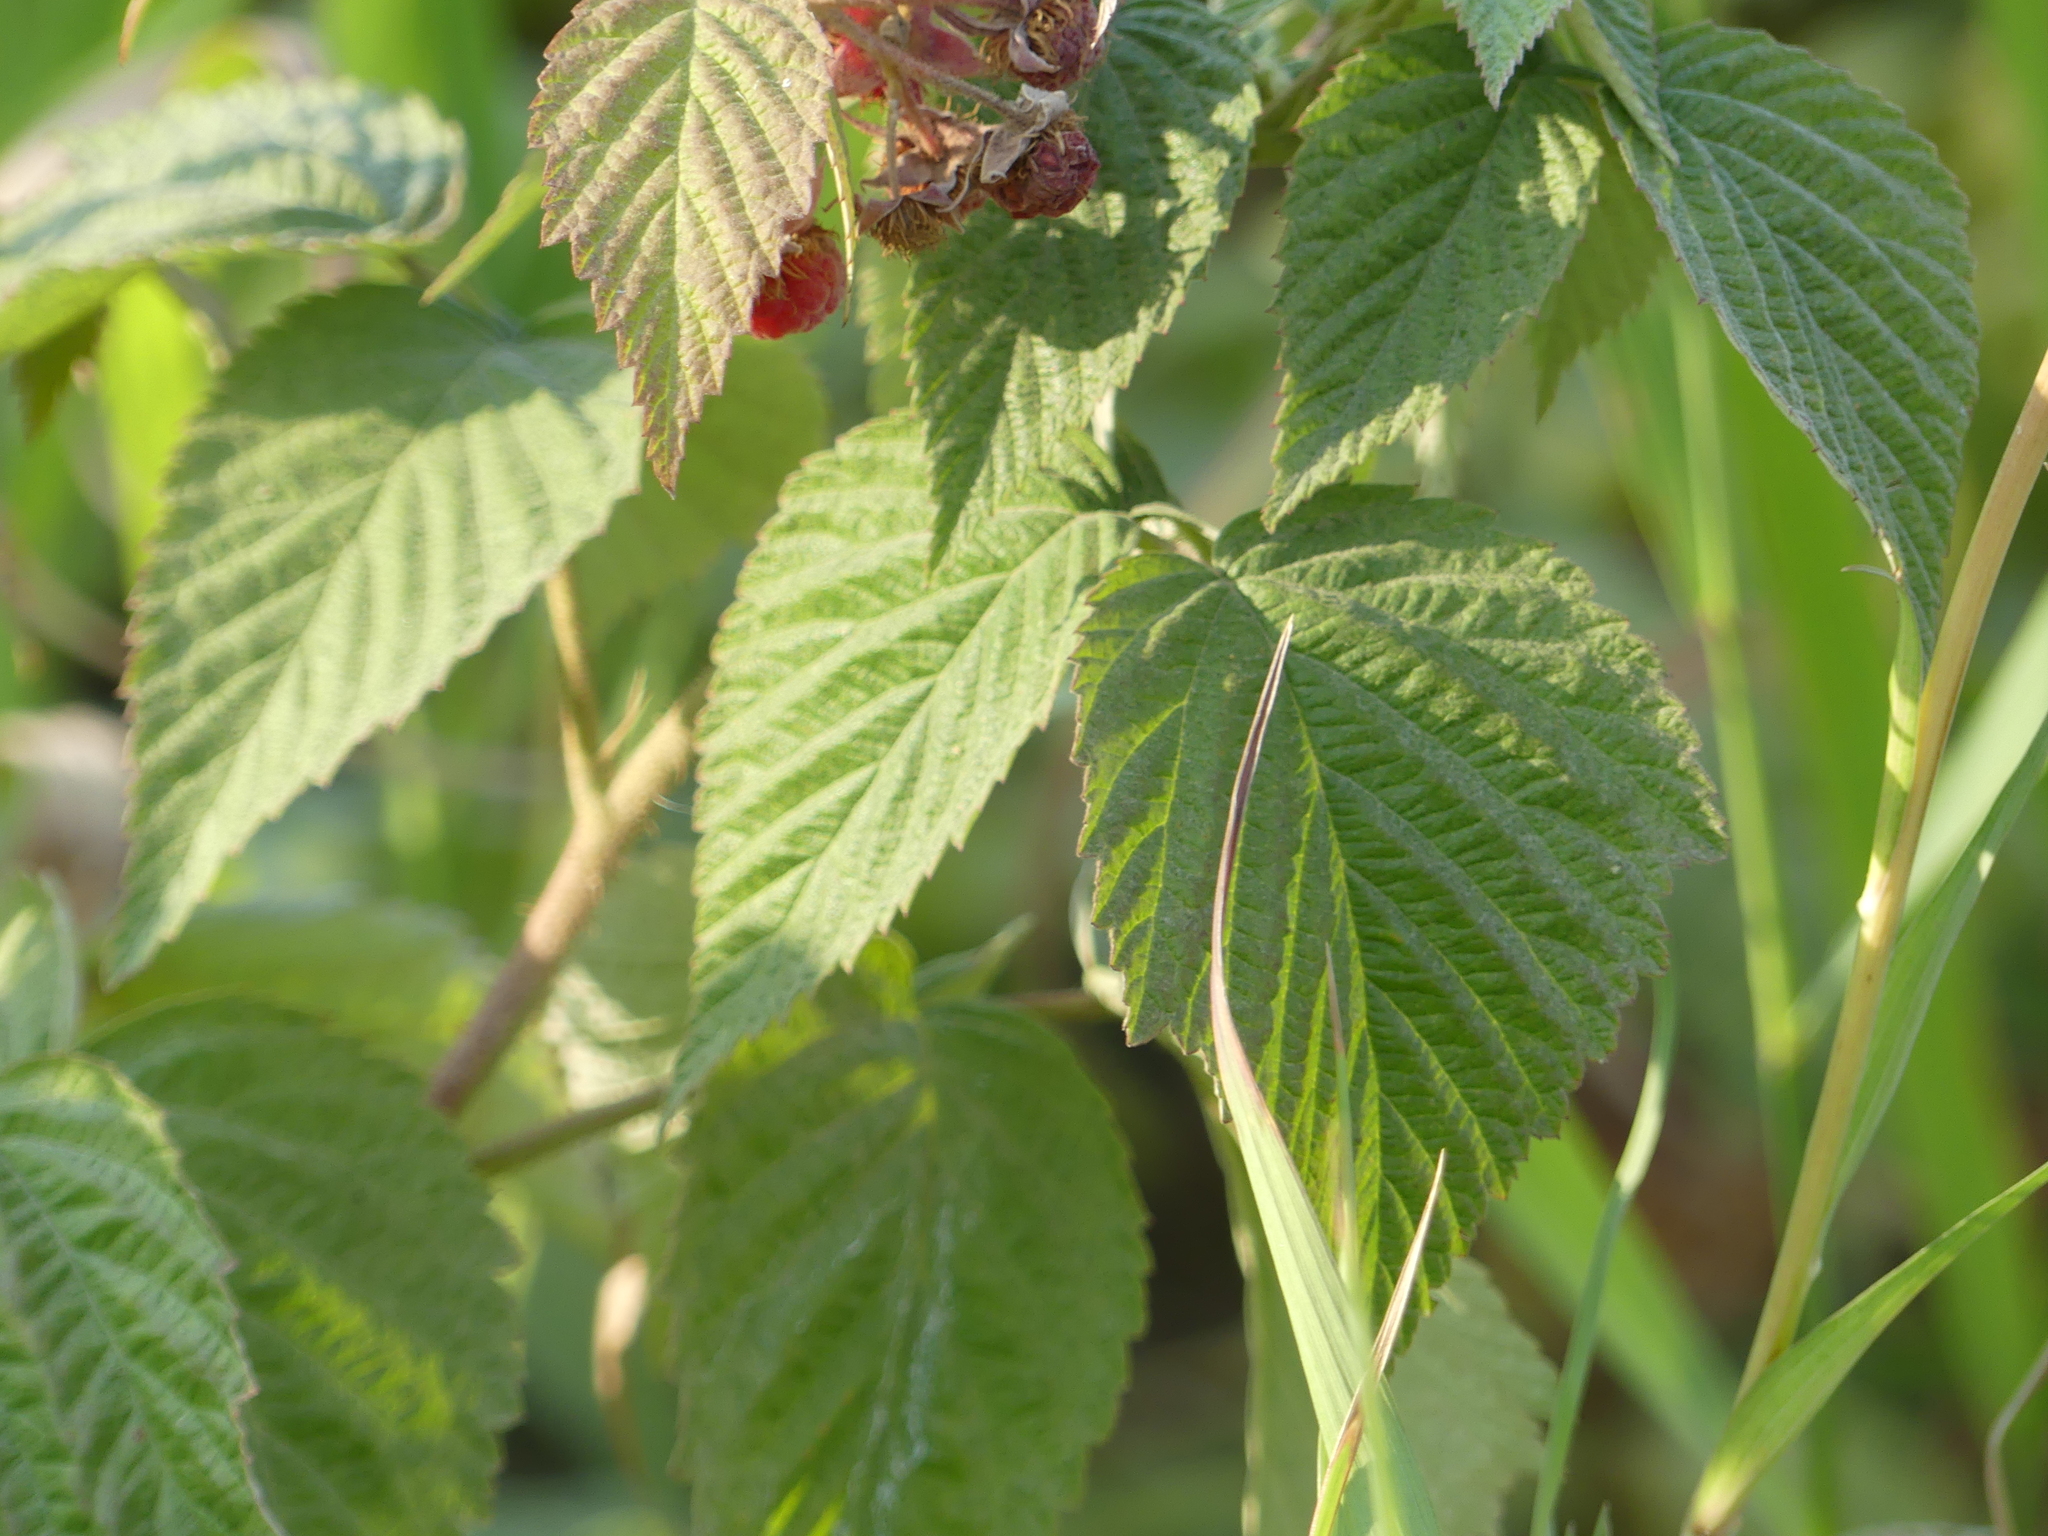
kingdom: Plantae
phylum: Tracheophyta
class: Magnoliopsida
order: Rosales
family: Rosaceae
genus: Rubus
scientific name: Rubus idaeus
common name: Raspberry
